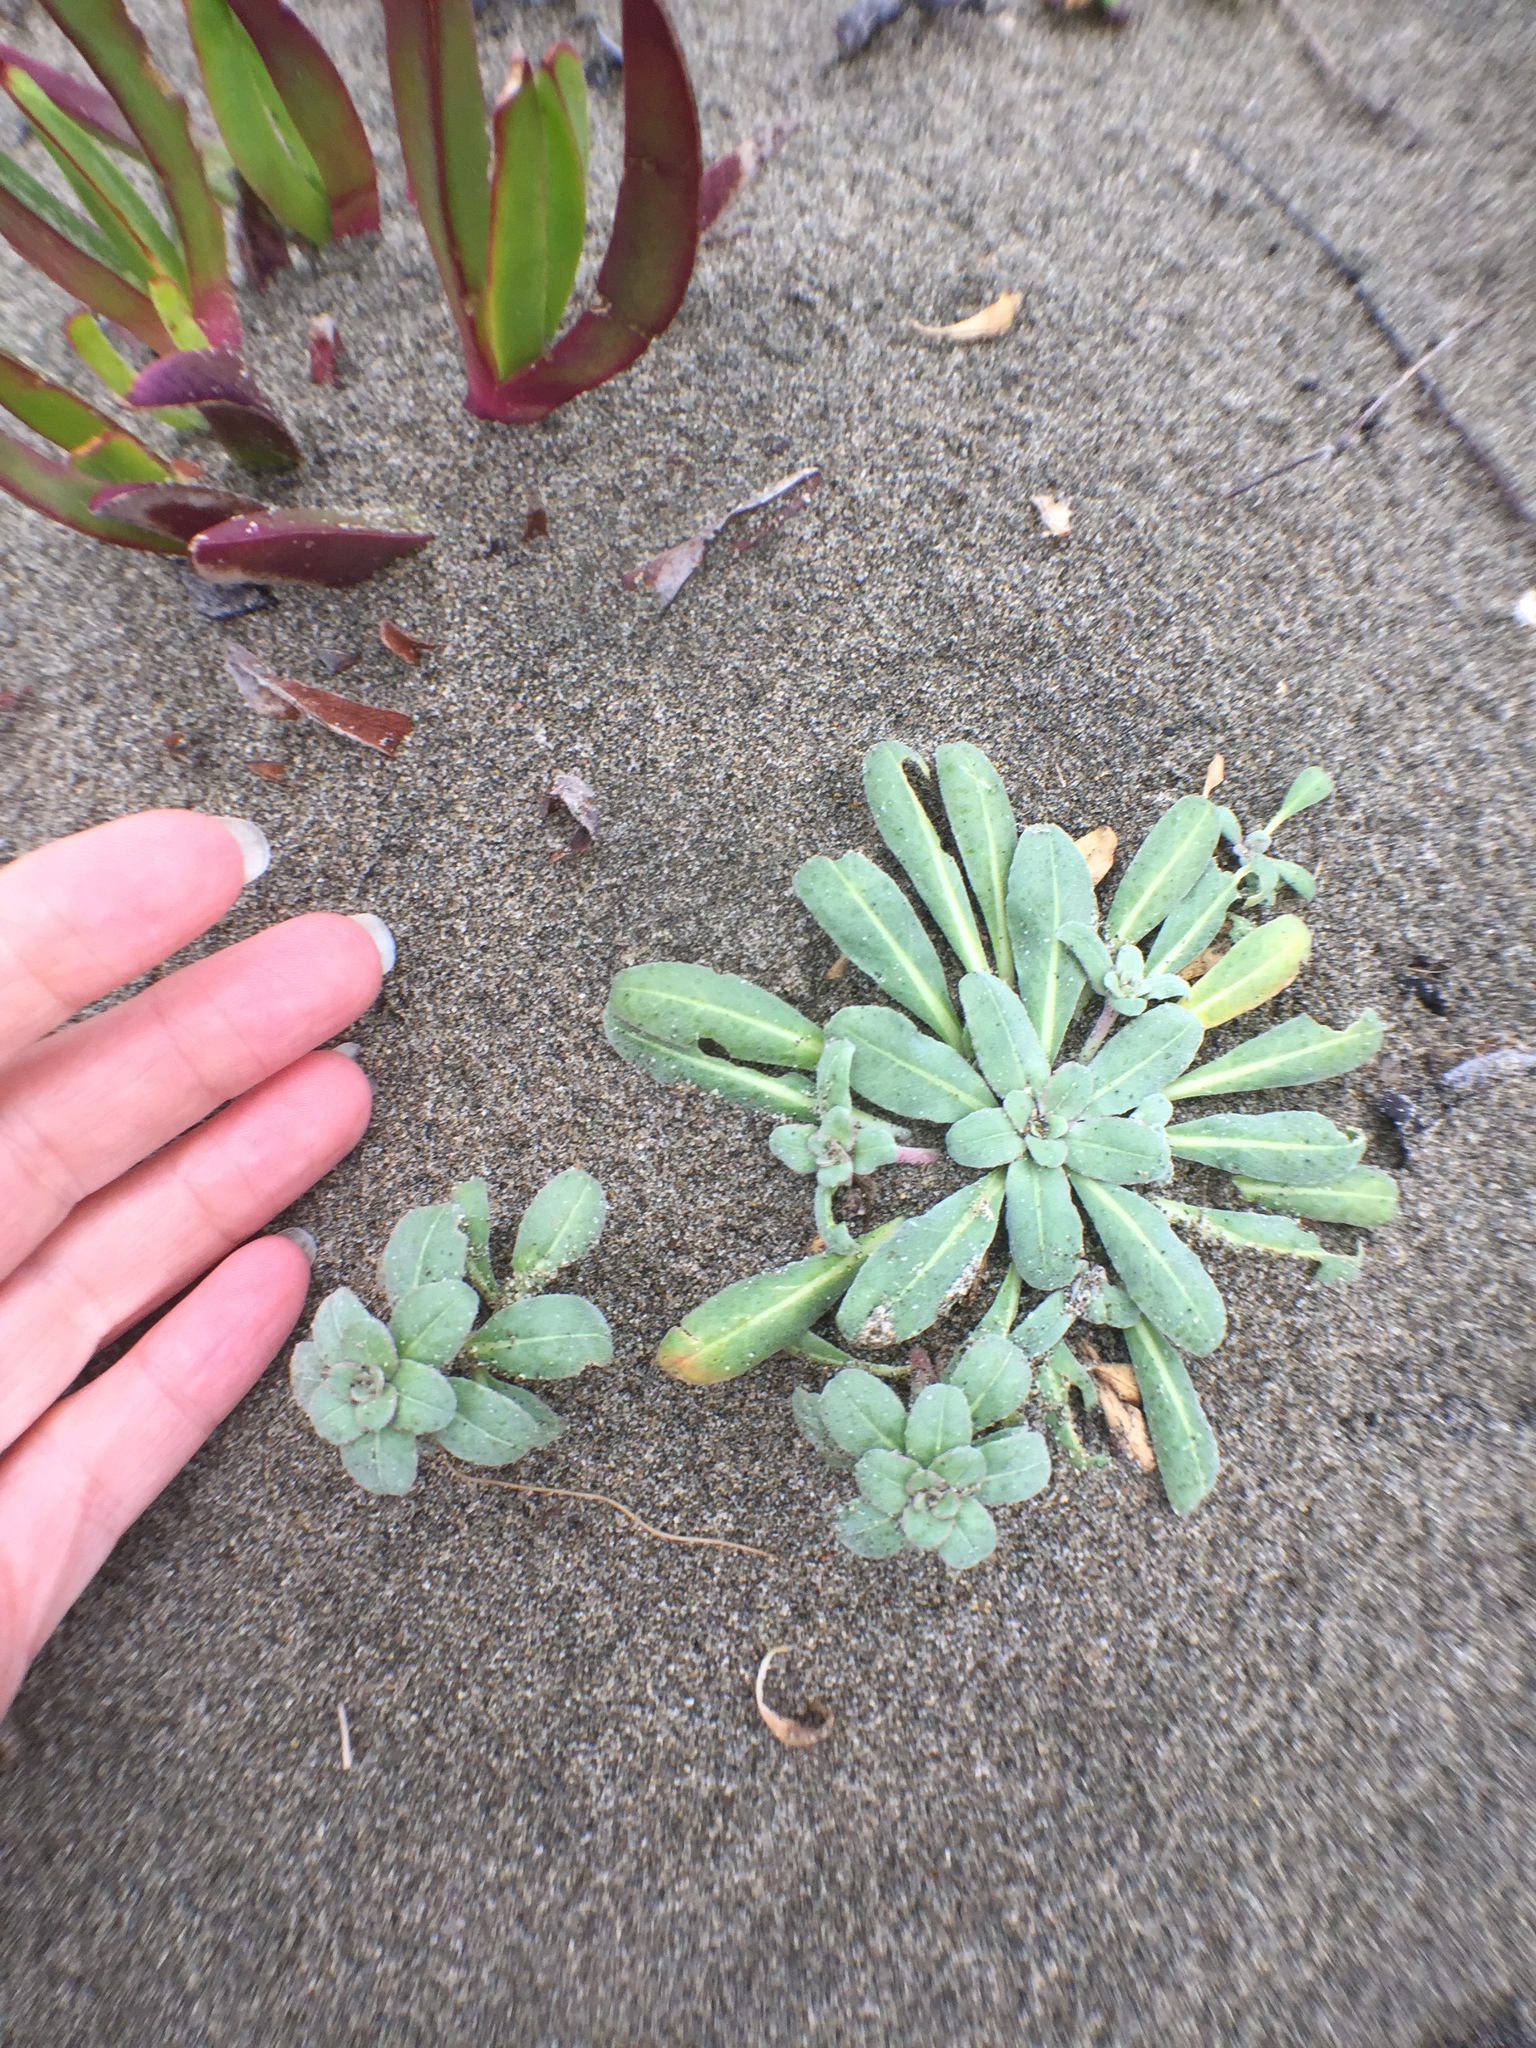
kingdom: Plantae
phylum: Tracheophyta
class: Magnoliopsida
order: Myrtales
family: Onagraceae
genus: Camissoniopsis
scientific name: Camissoniopsis cheiranthifolia
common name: Beach suncup
